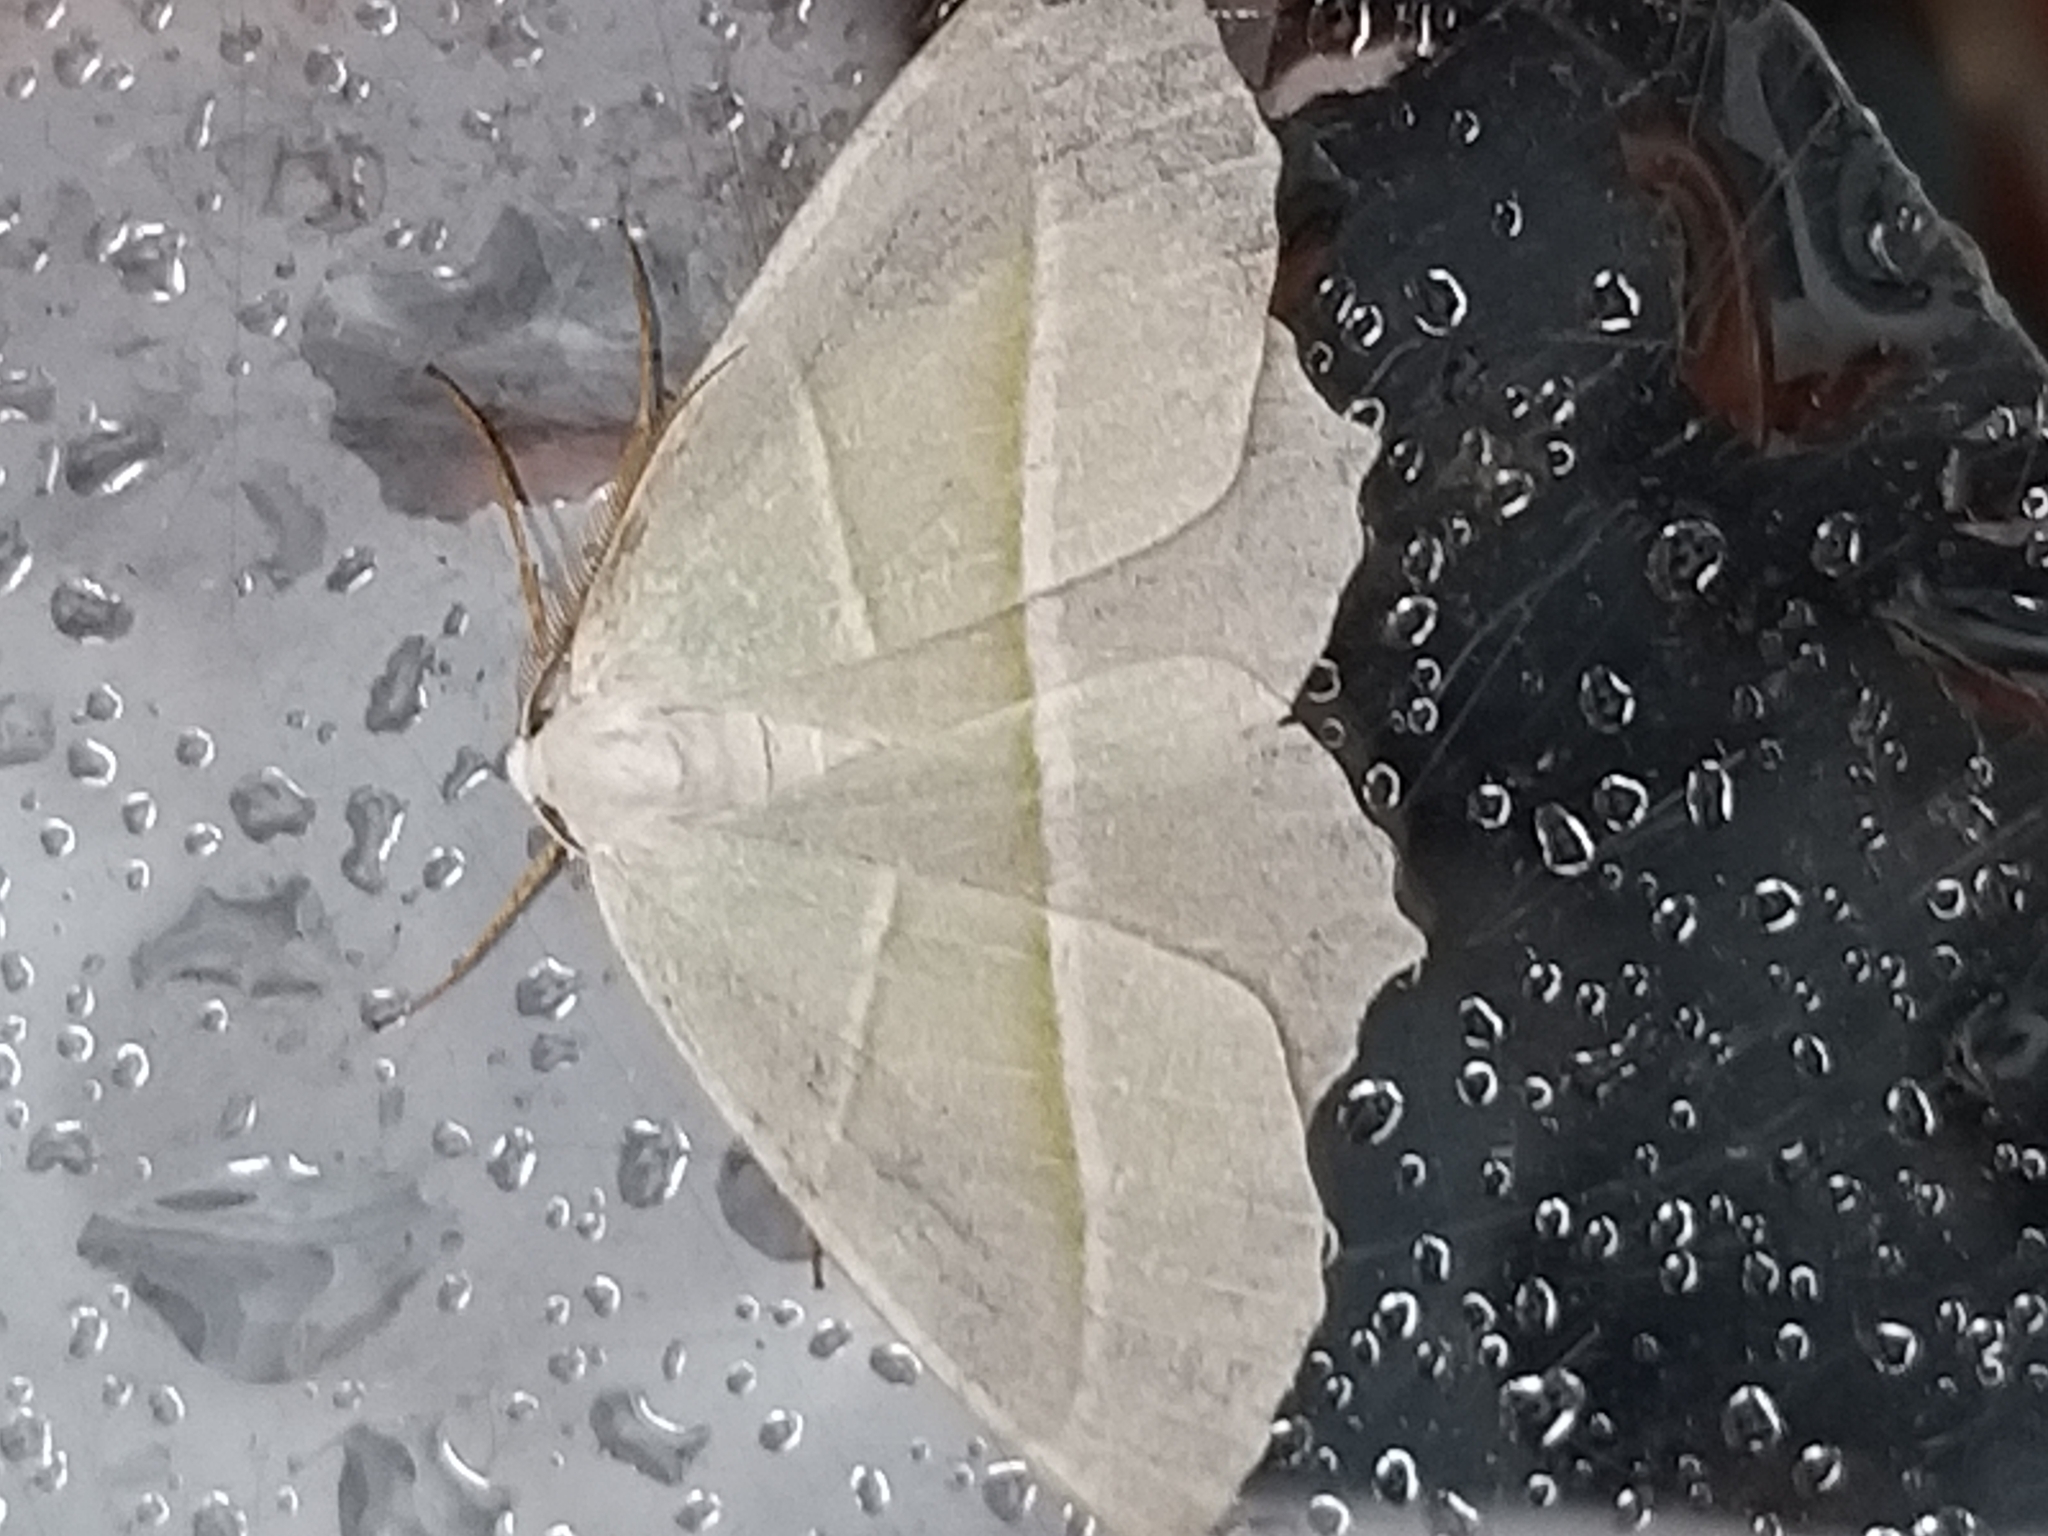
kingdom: Animalia
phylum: Arthropoda
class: Insecta
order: Lepidoptera
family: Geometridae
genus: Campaea
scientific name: Campaea margaritaria
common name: Light emerald
